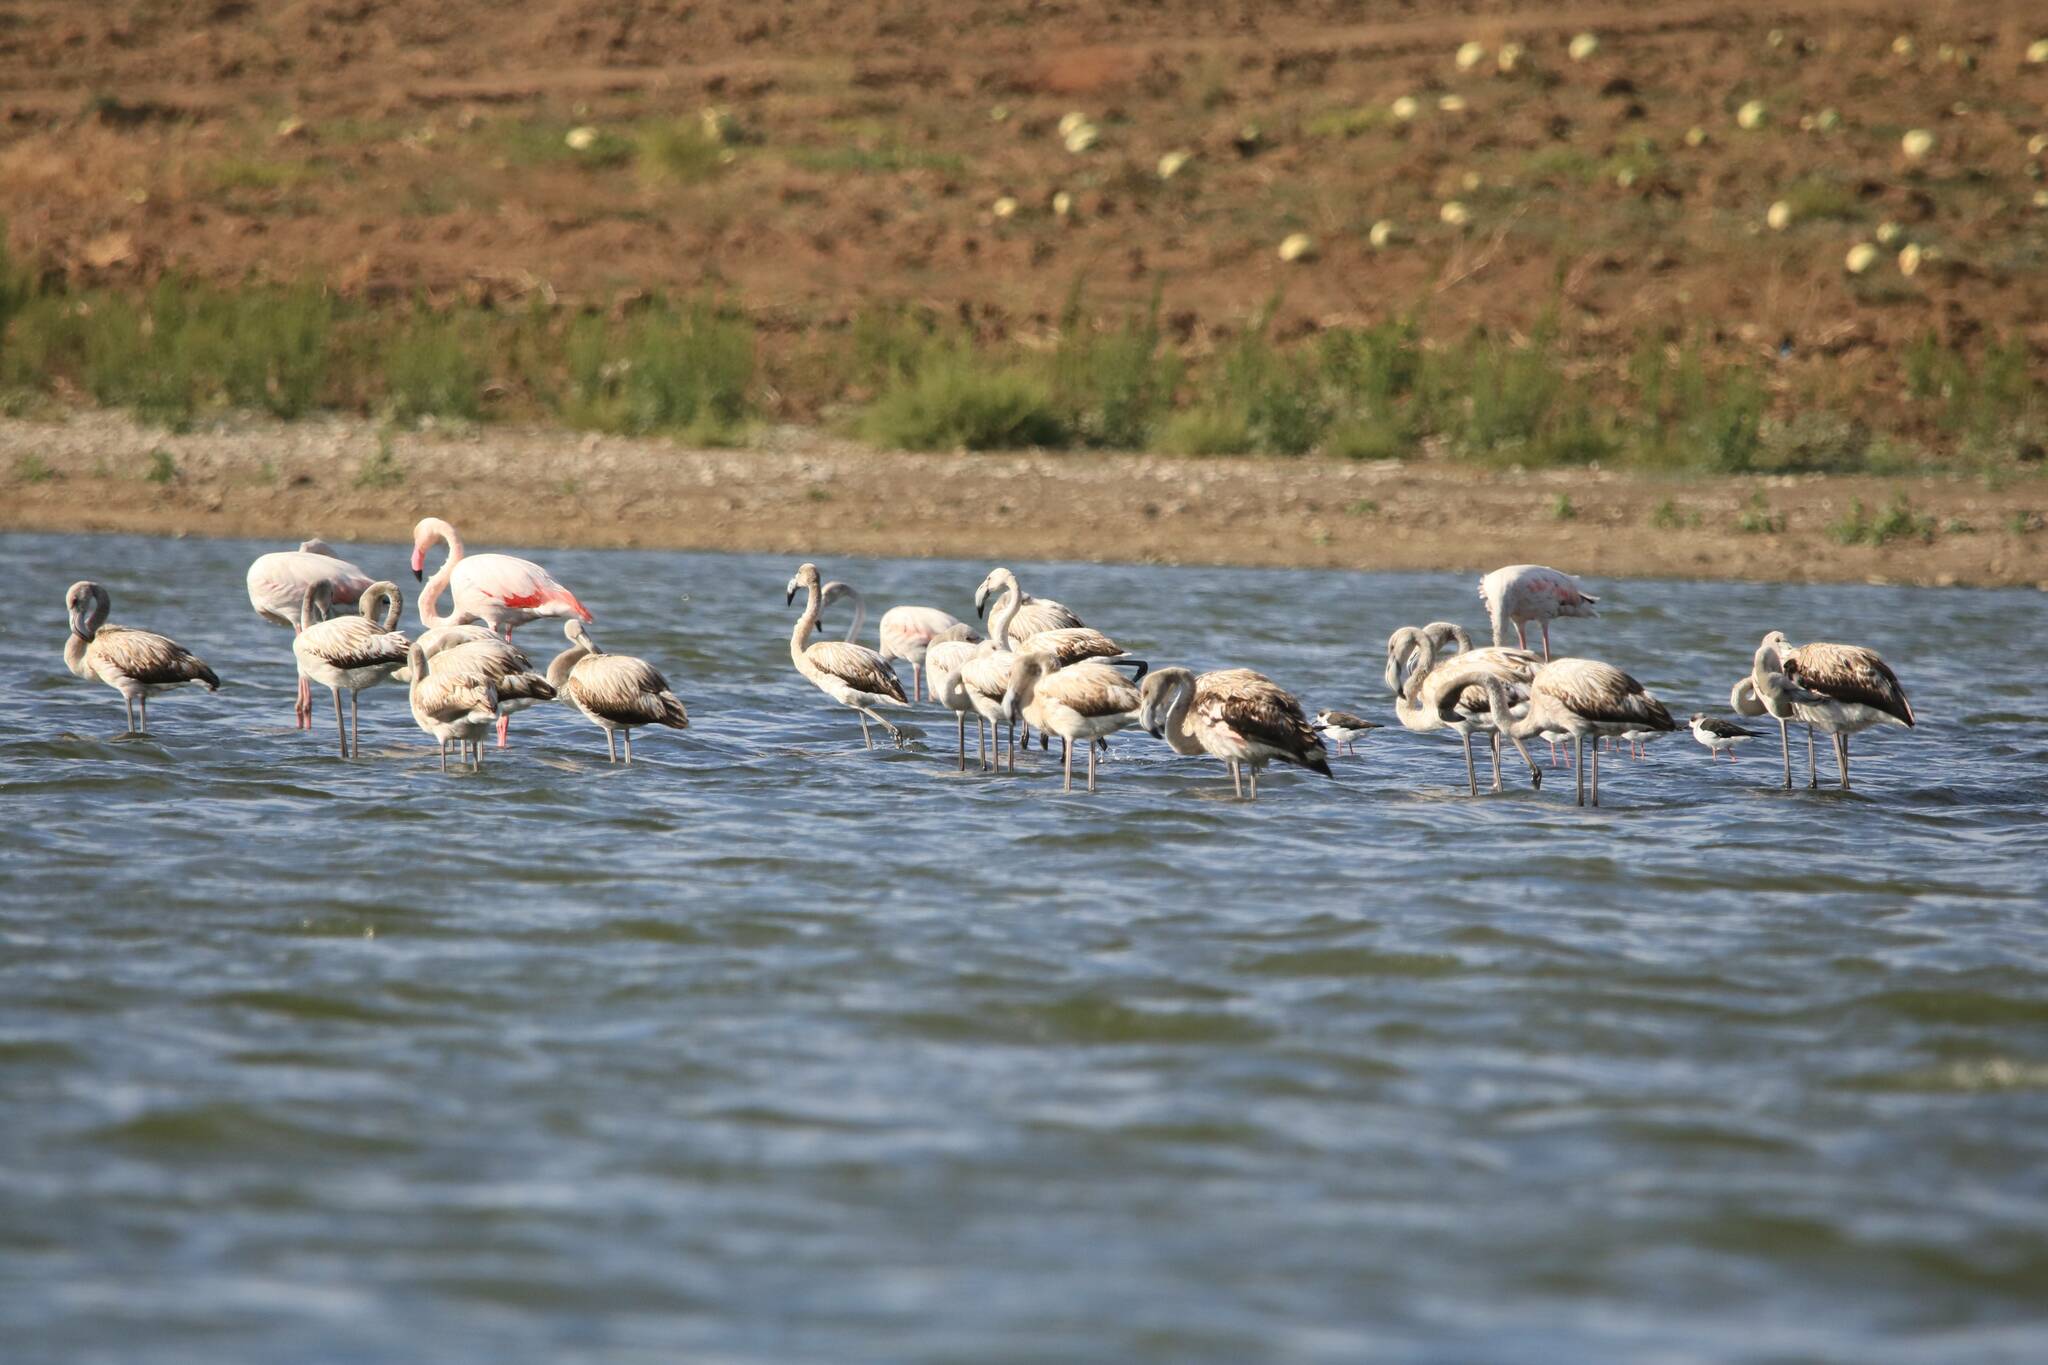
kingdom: Animalia
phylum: Chordata
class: Aves
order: Phoenicopteriformes
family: Phoenicopteridae
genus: Phoenicopterus
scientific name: Phoenicopterus roseus
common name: Greater flamingo
